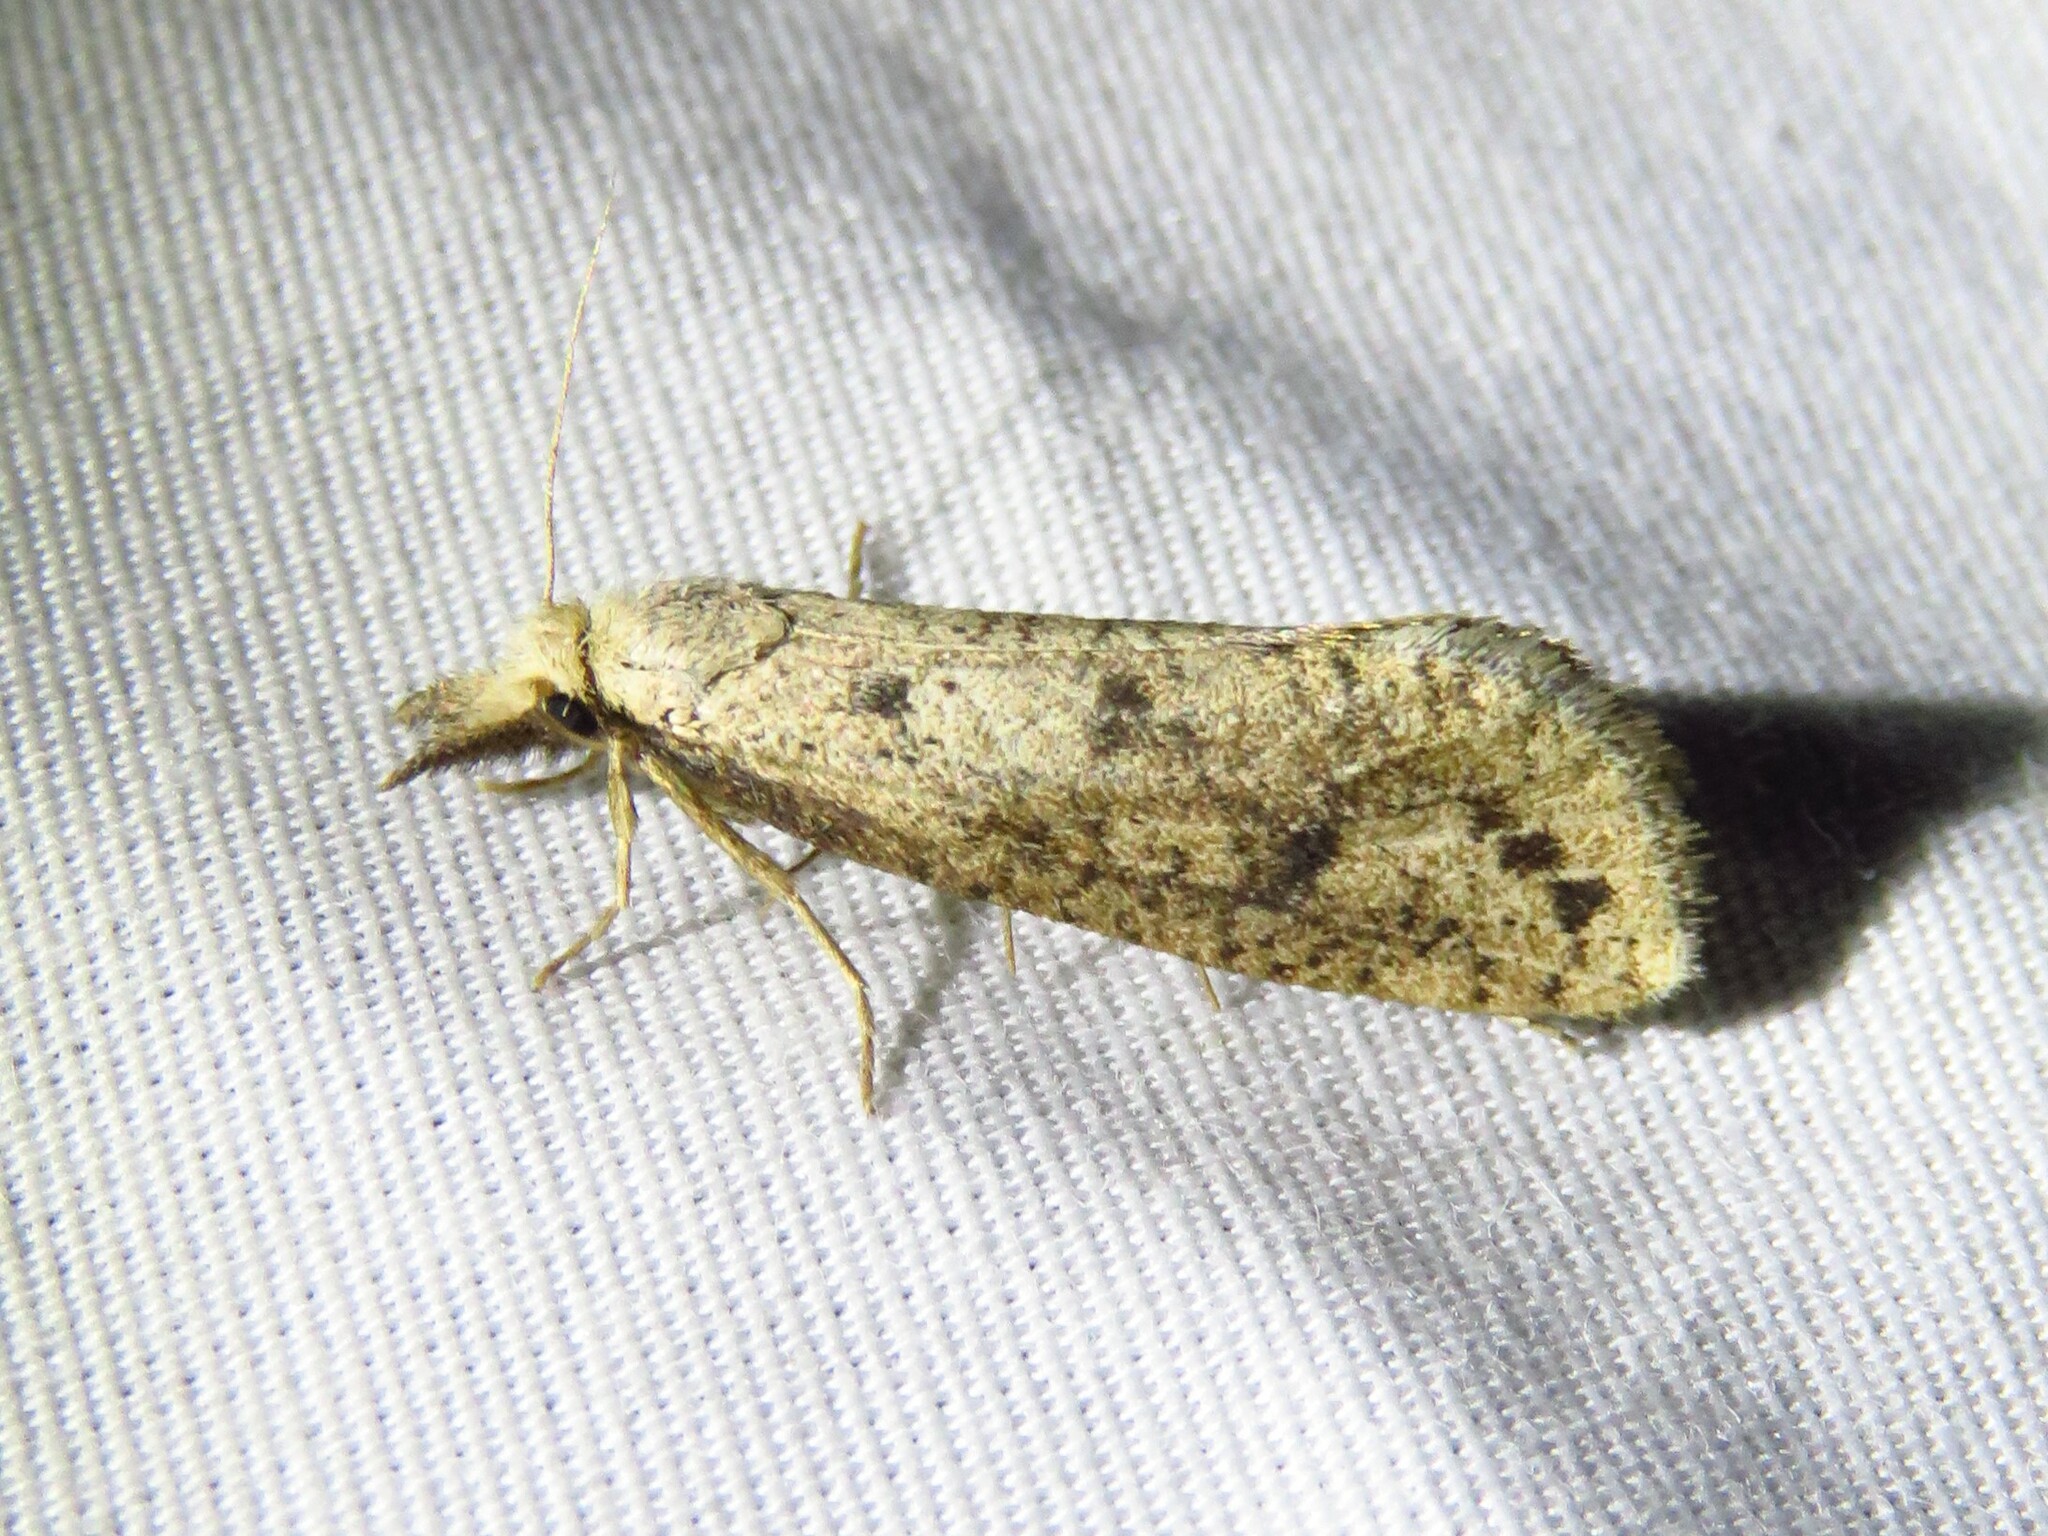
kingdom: Animalia
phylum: Arthropoda
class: Insecta
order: Lepidoptera
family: Tineidae
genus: Acrolophus
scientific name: Acrolophus mortipennella
